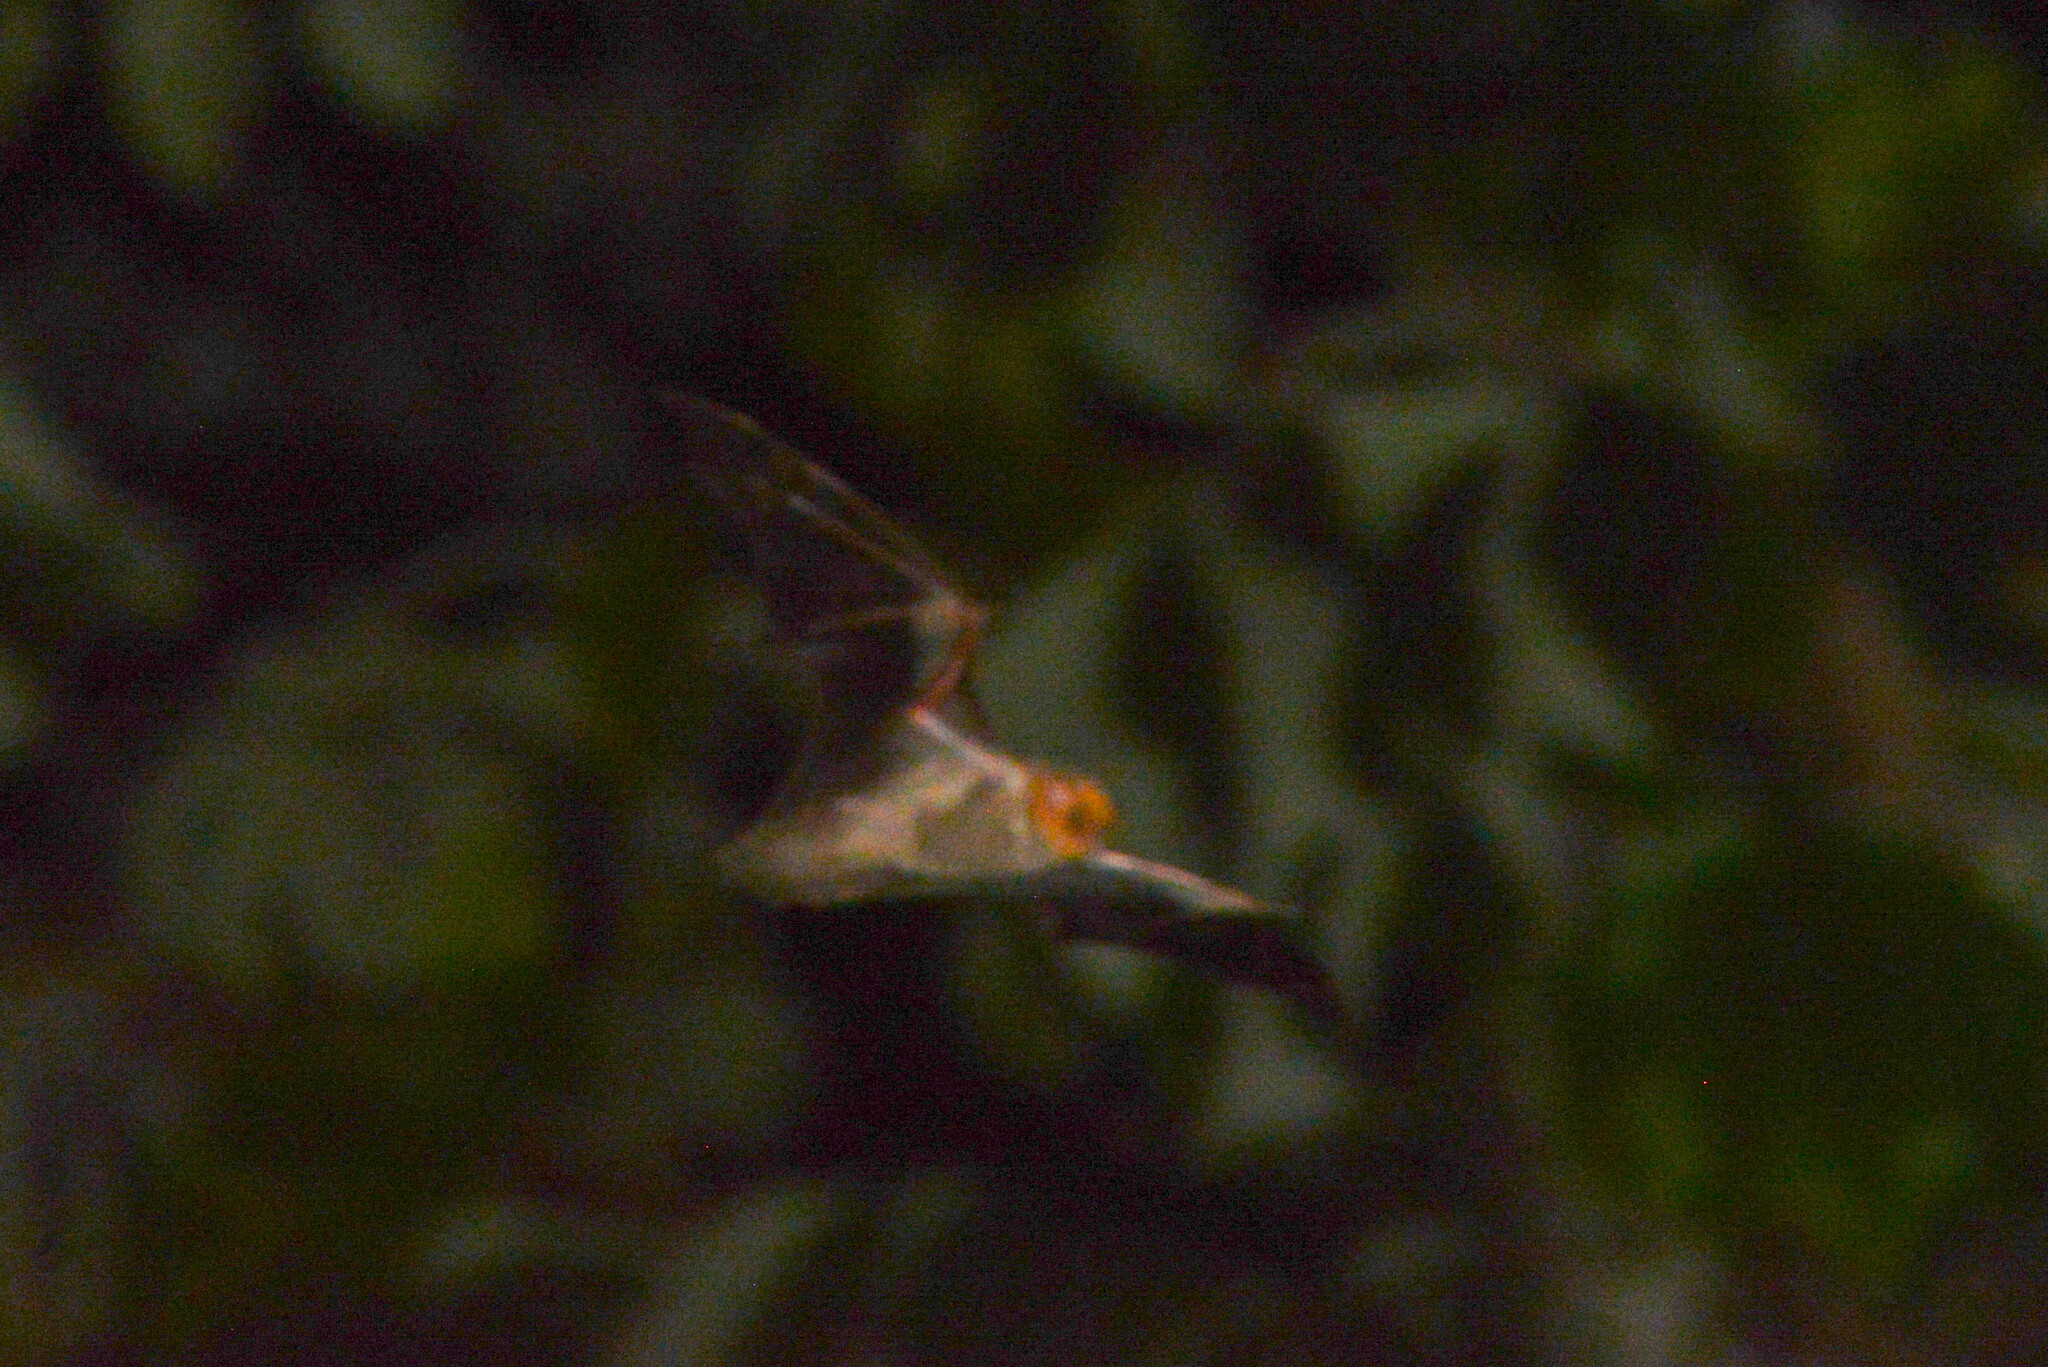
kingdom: Animalia
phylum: Chordata
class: Mammalia
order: Chiroptera
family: Vespertilionidae
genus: Lasiurus
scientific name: Lasiurus blossevillii
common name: Southern red bat
